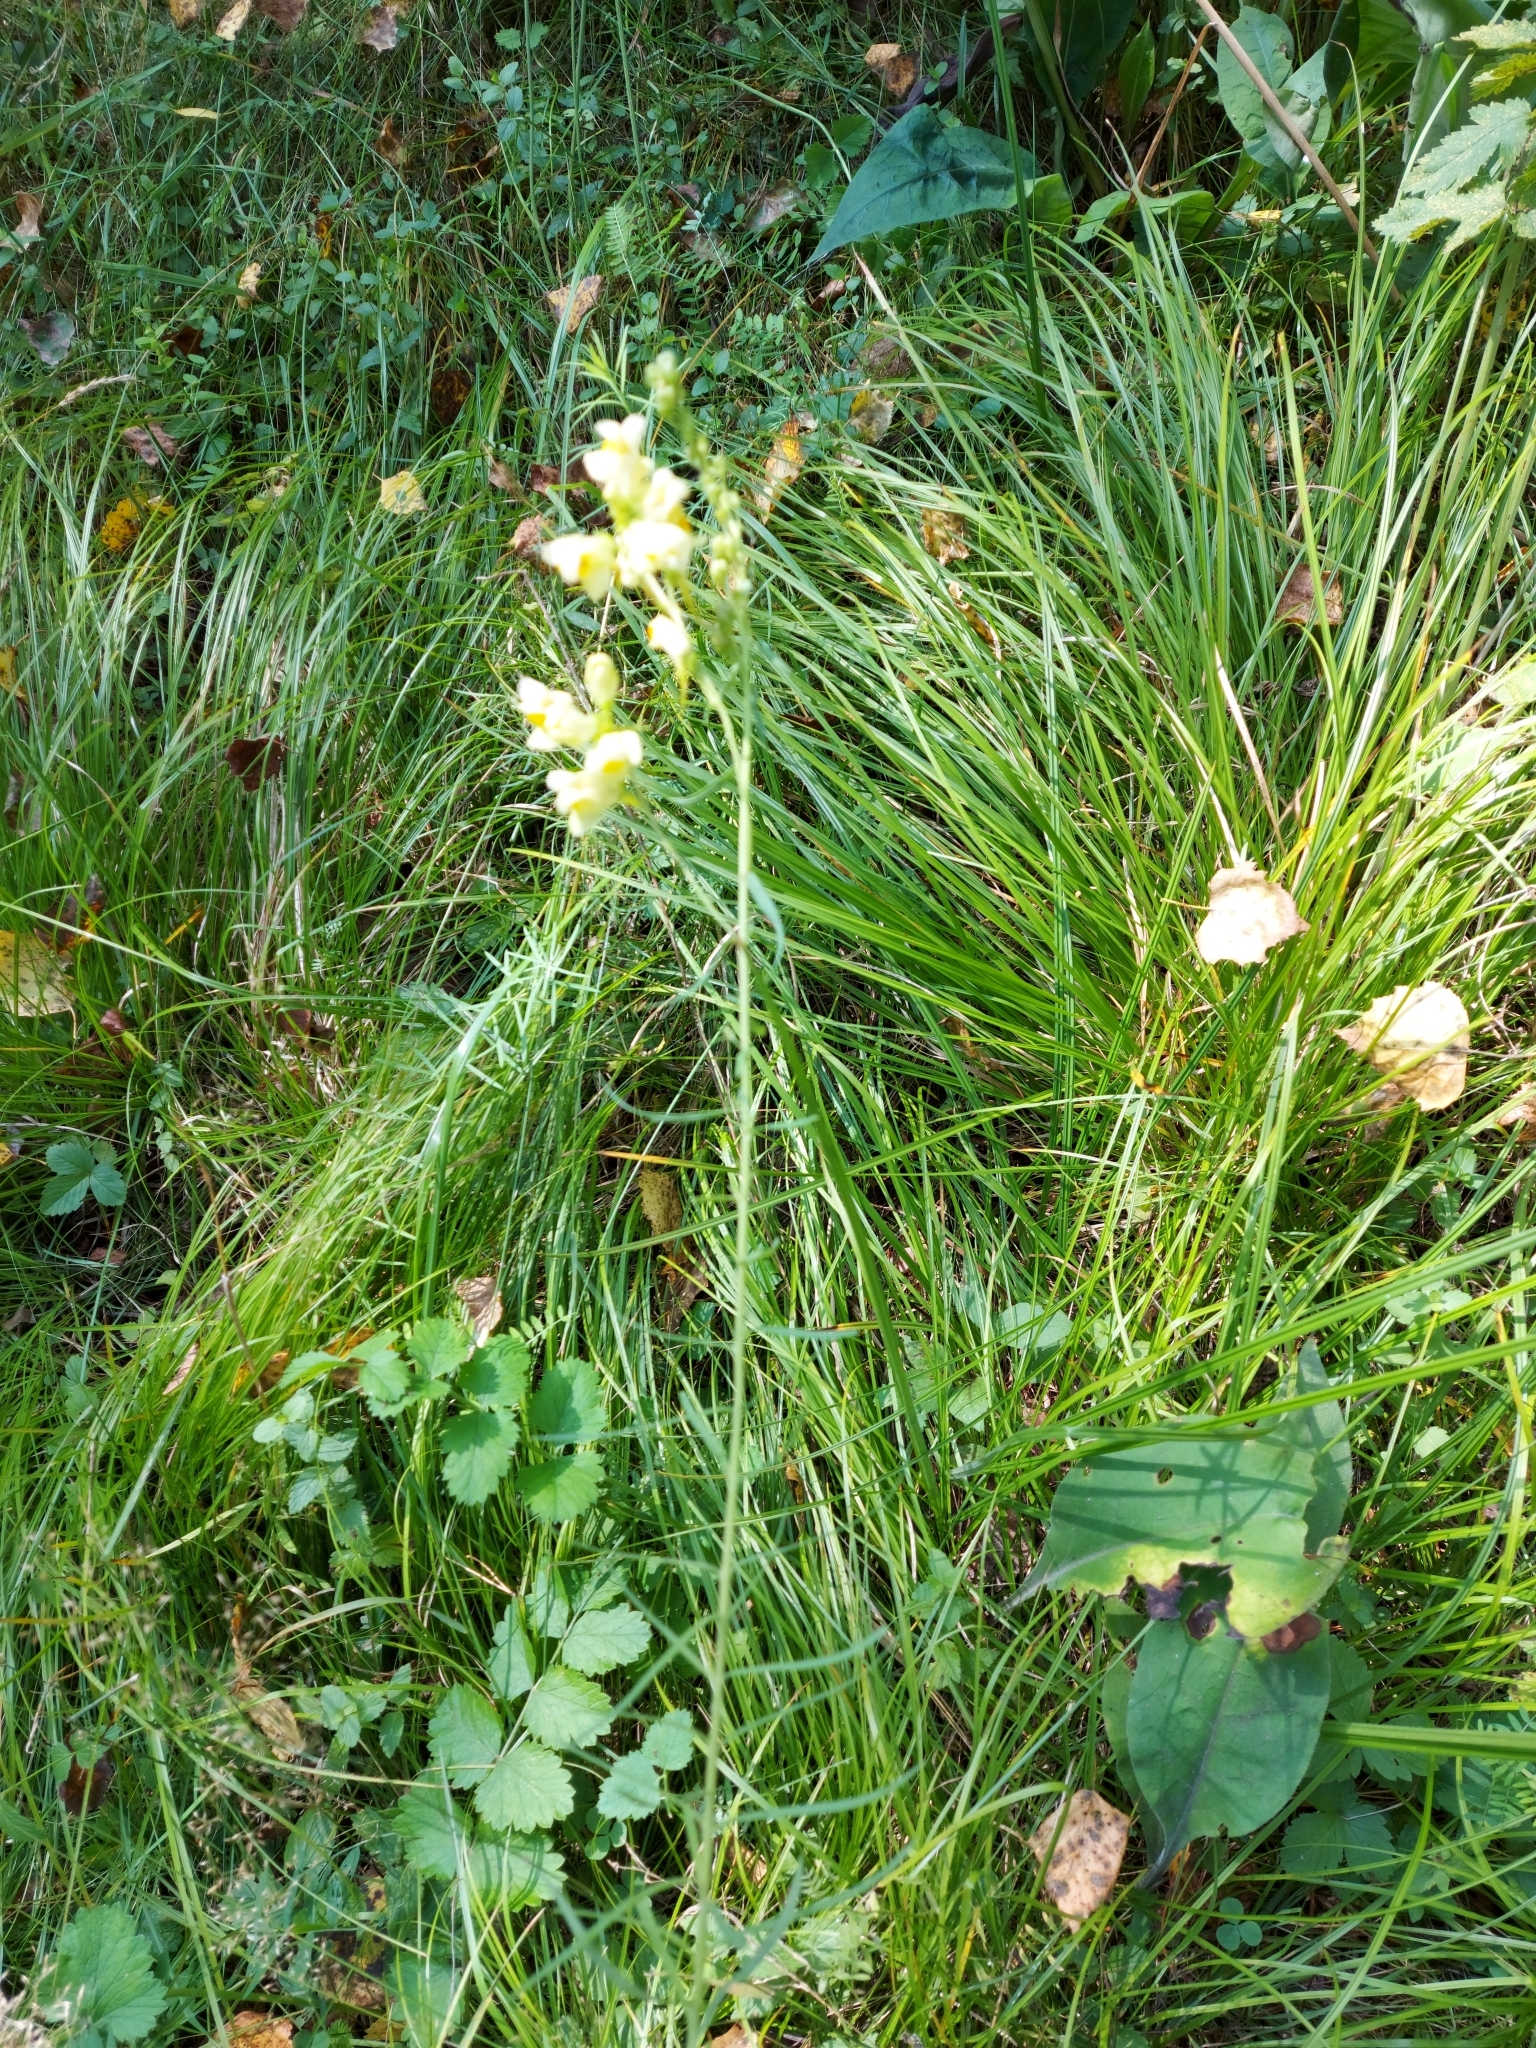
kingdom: Plantae
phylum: Tracheophyta
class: Magnoliopsida
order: Lamiales
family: Plantaginaceae
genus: Linaria
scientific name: Linaria vulgaris
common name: Butter and eggs
